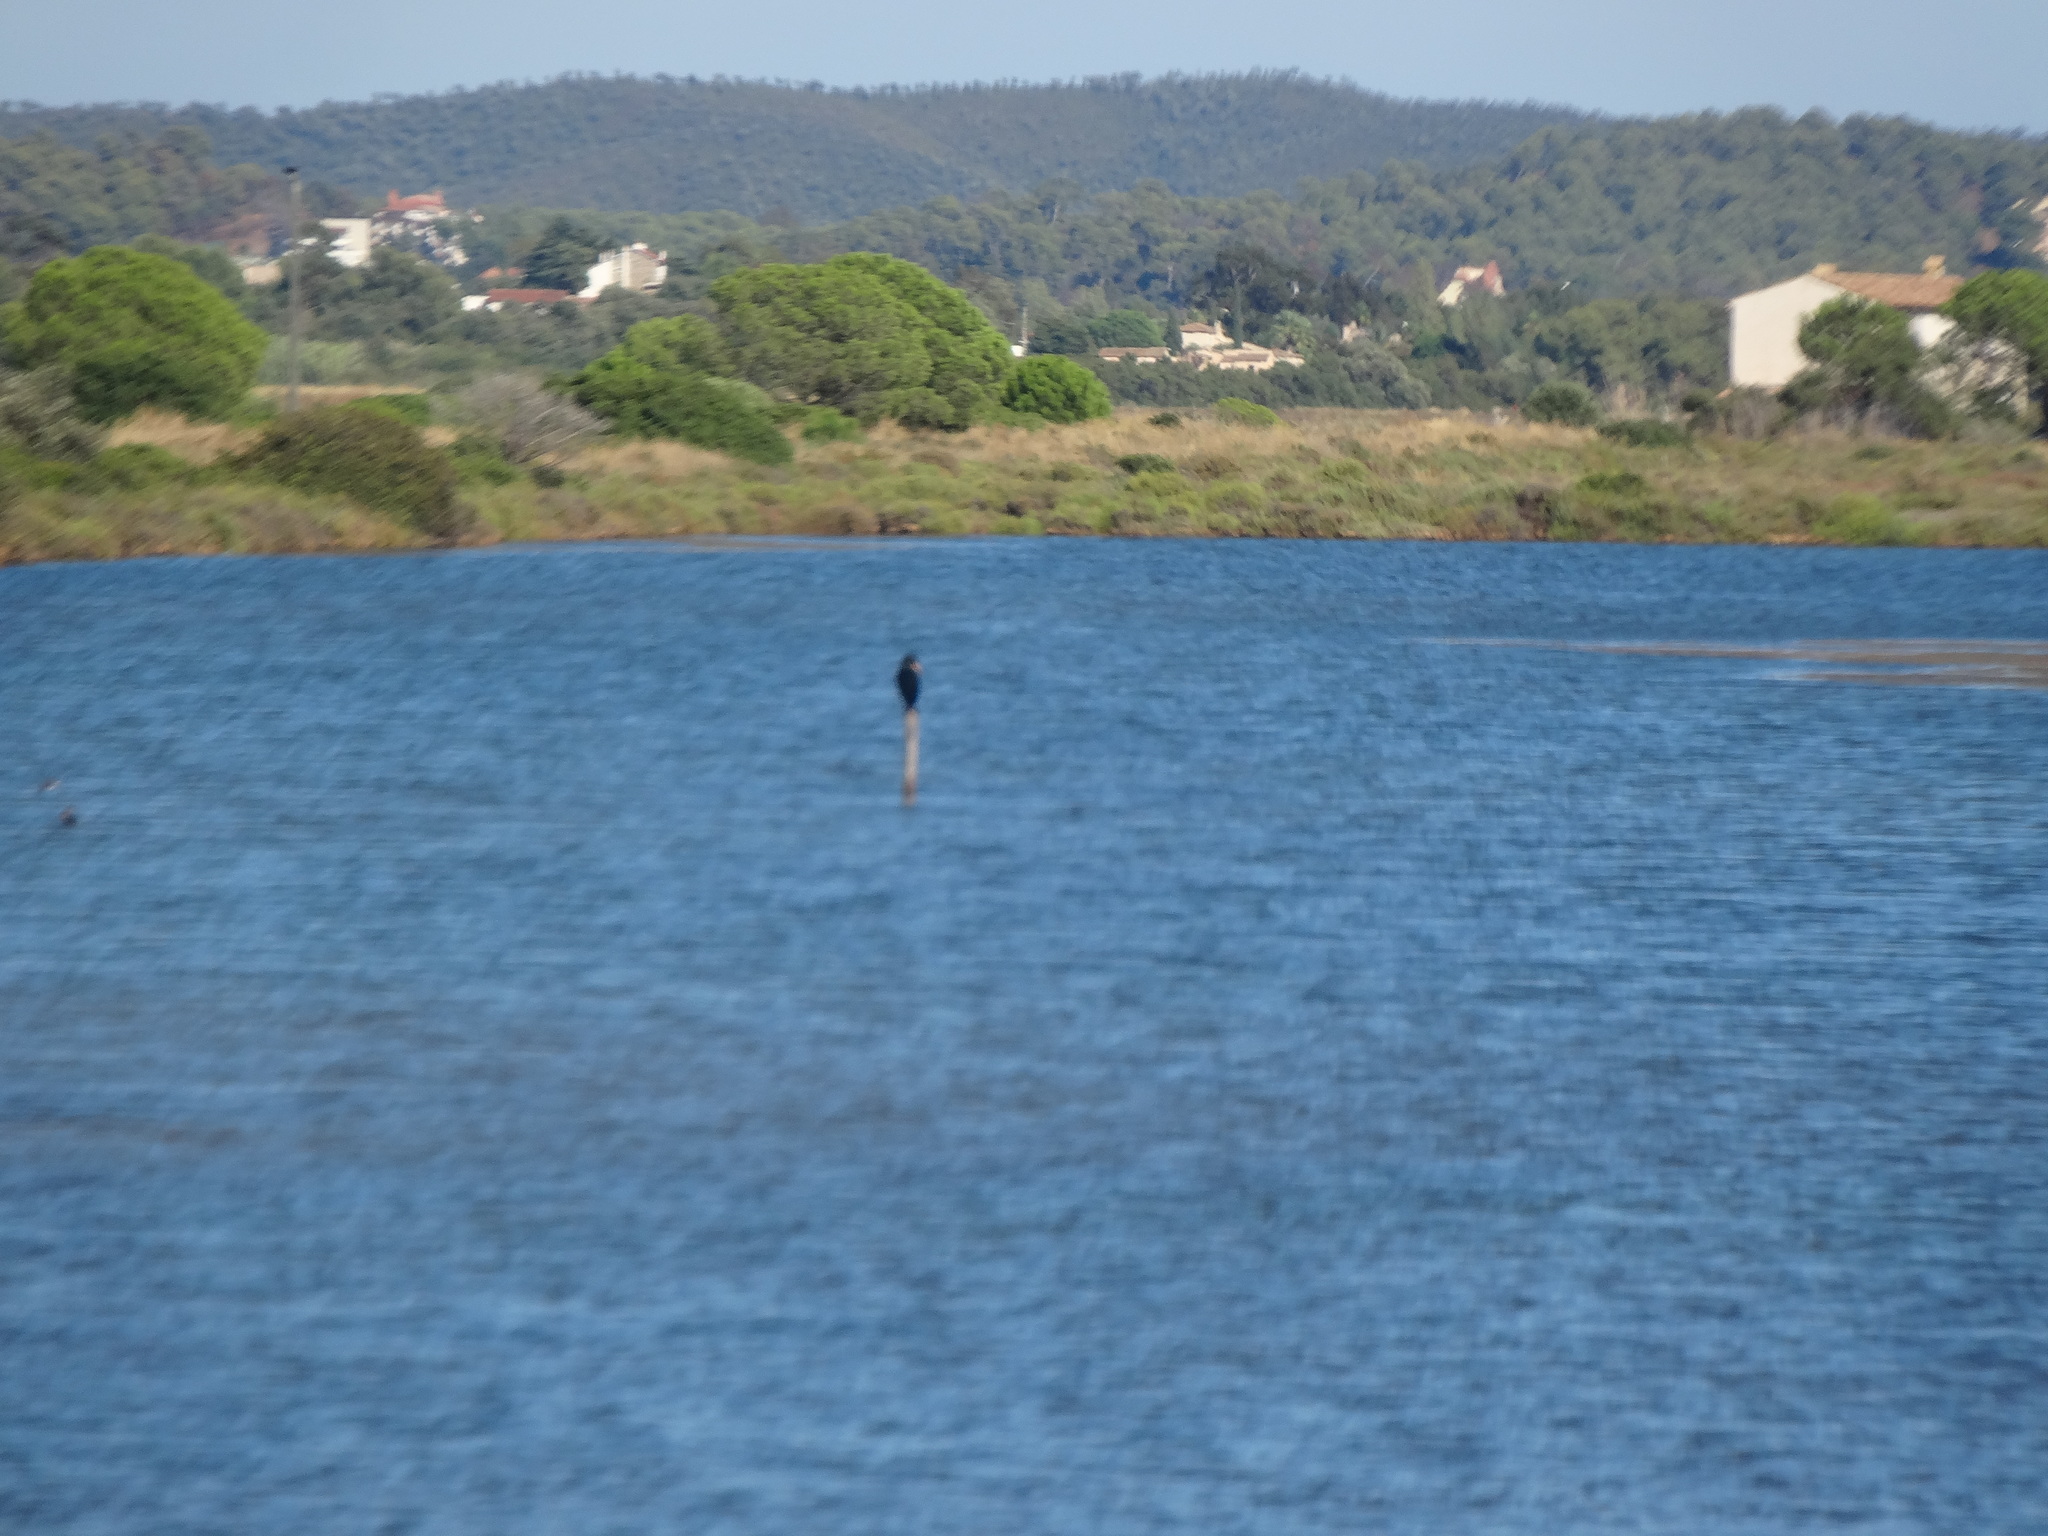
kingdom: Animalia
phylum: Chordata
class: Aves
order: Suliformes
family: Phalacrocoracidae
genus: Phalacrocorax
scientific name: Phalacrocorax carbo
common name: Great cormorant
